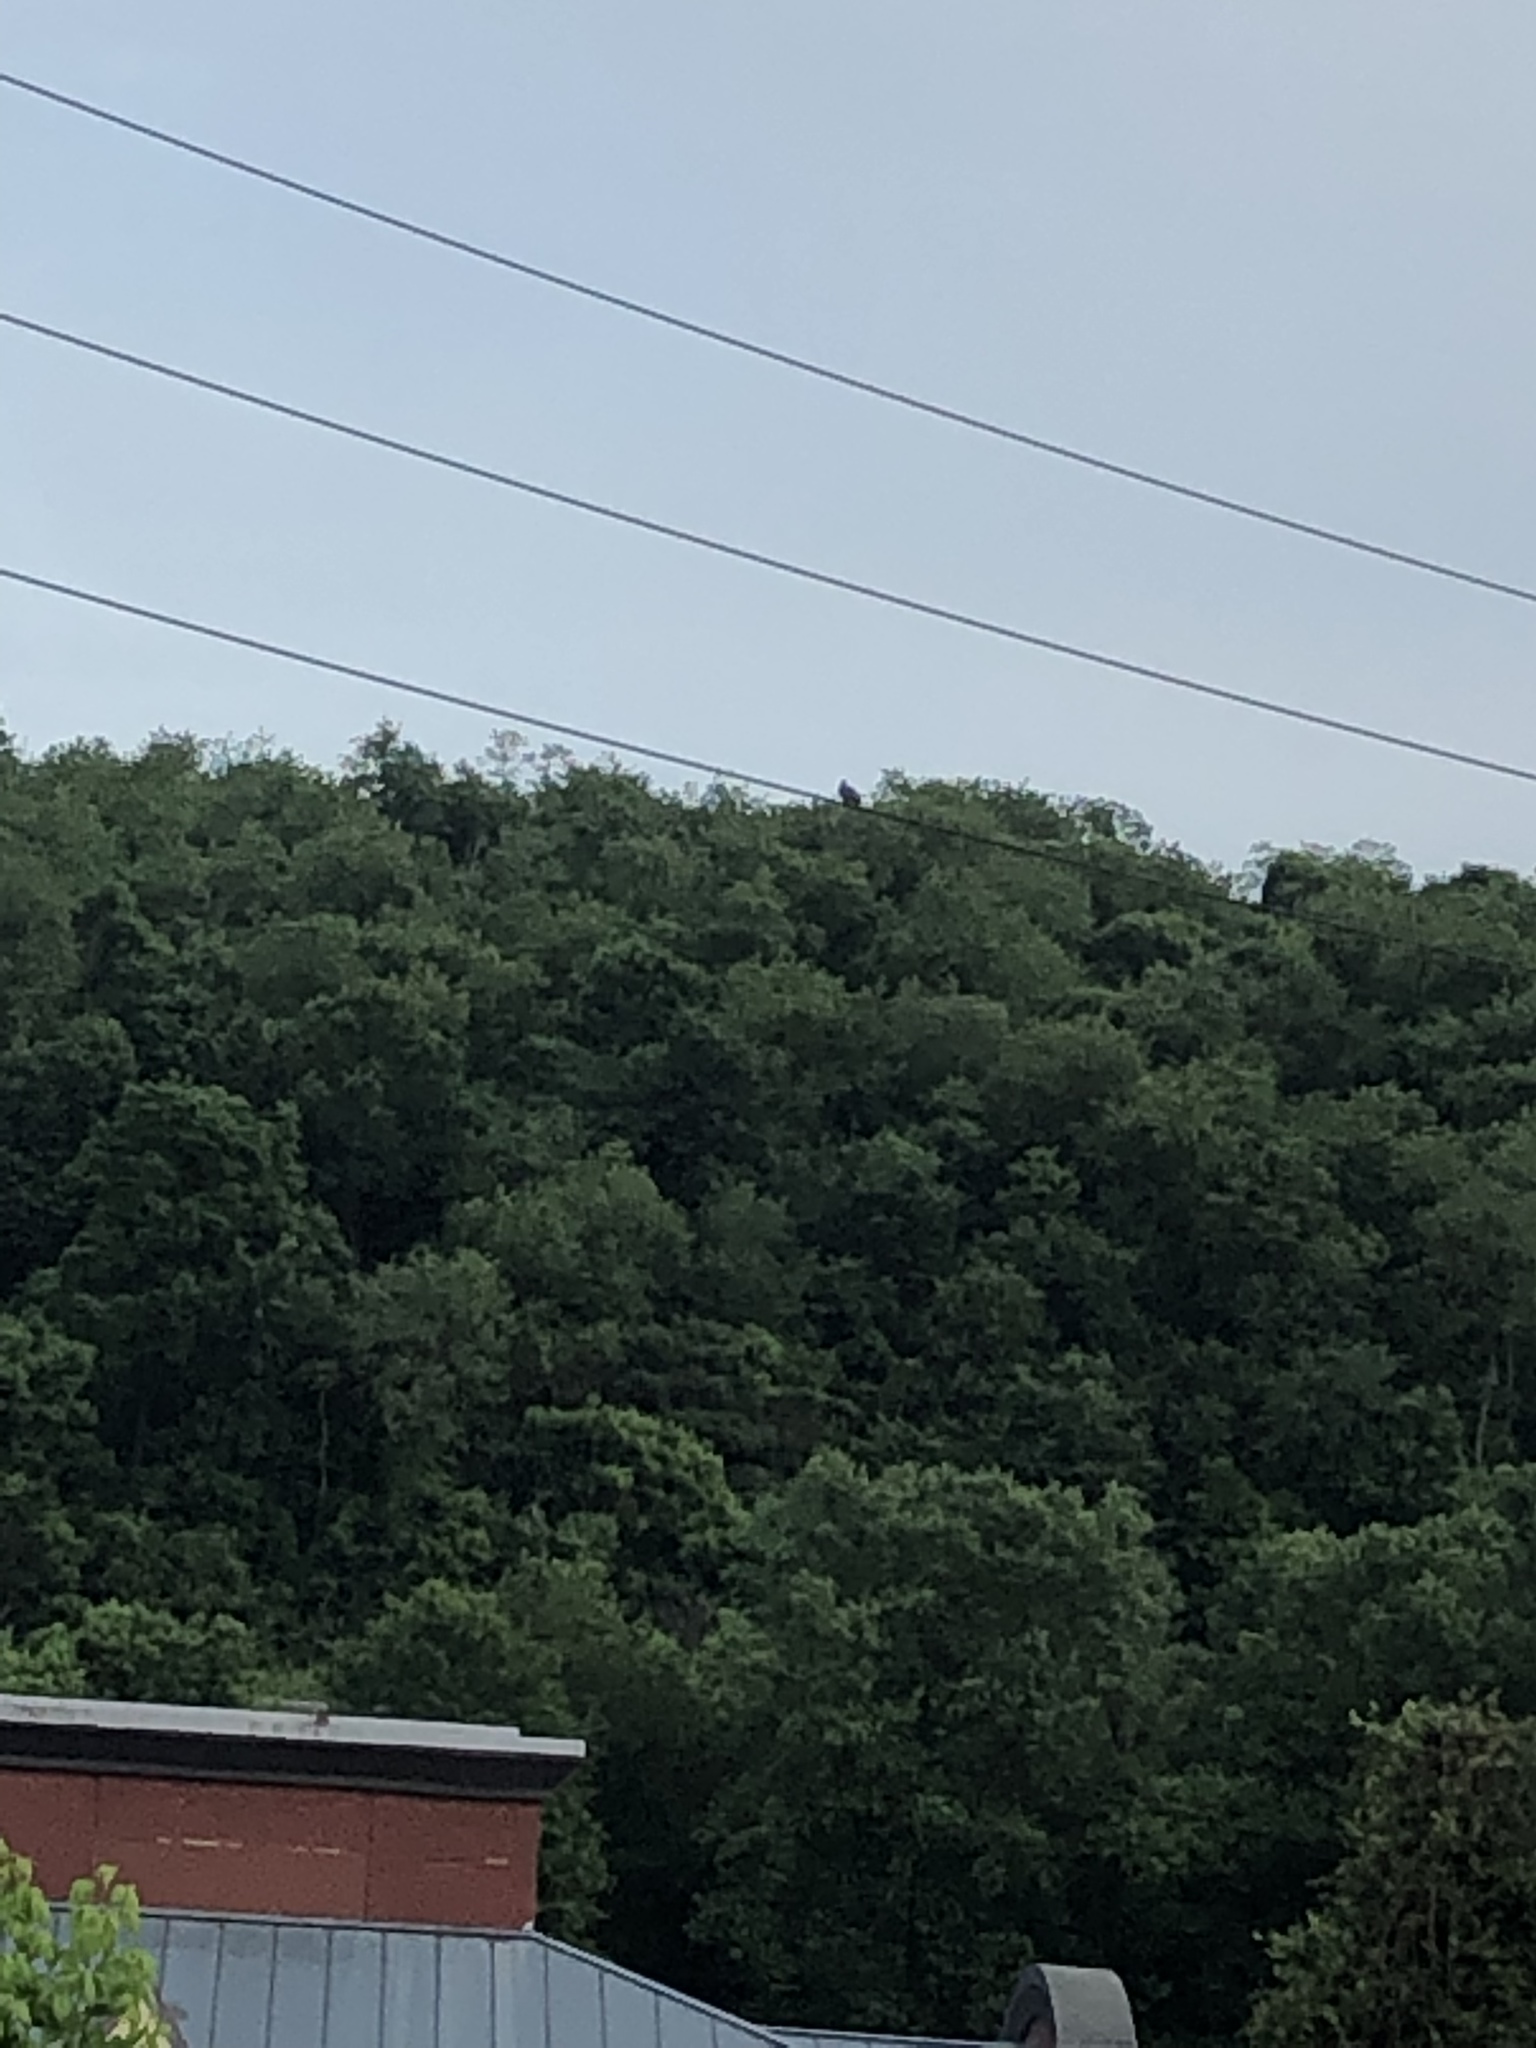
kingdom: Animalia
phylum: Chordata
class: Aves
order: Coraciiformes
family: Alcedinidae
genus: Megaceryle
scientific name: Megaceryle alcyon
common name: Belted kingfisher
